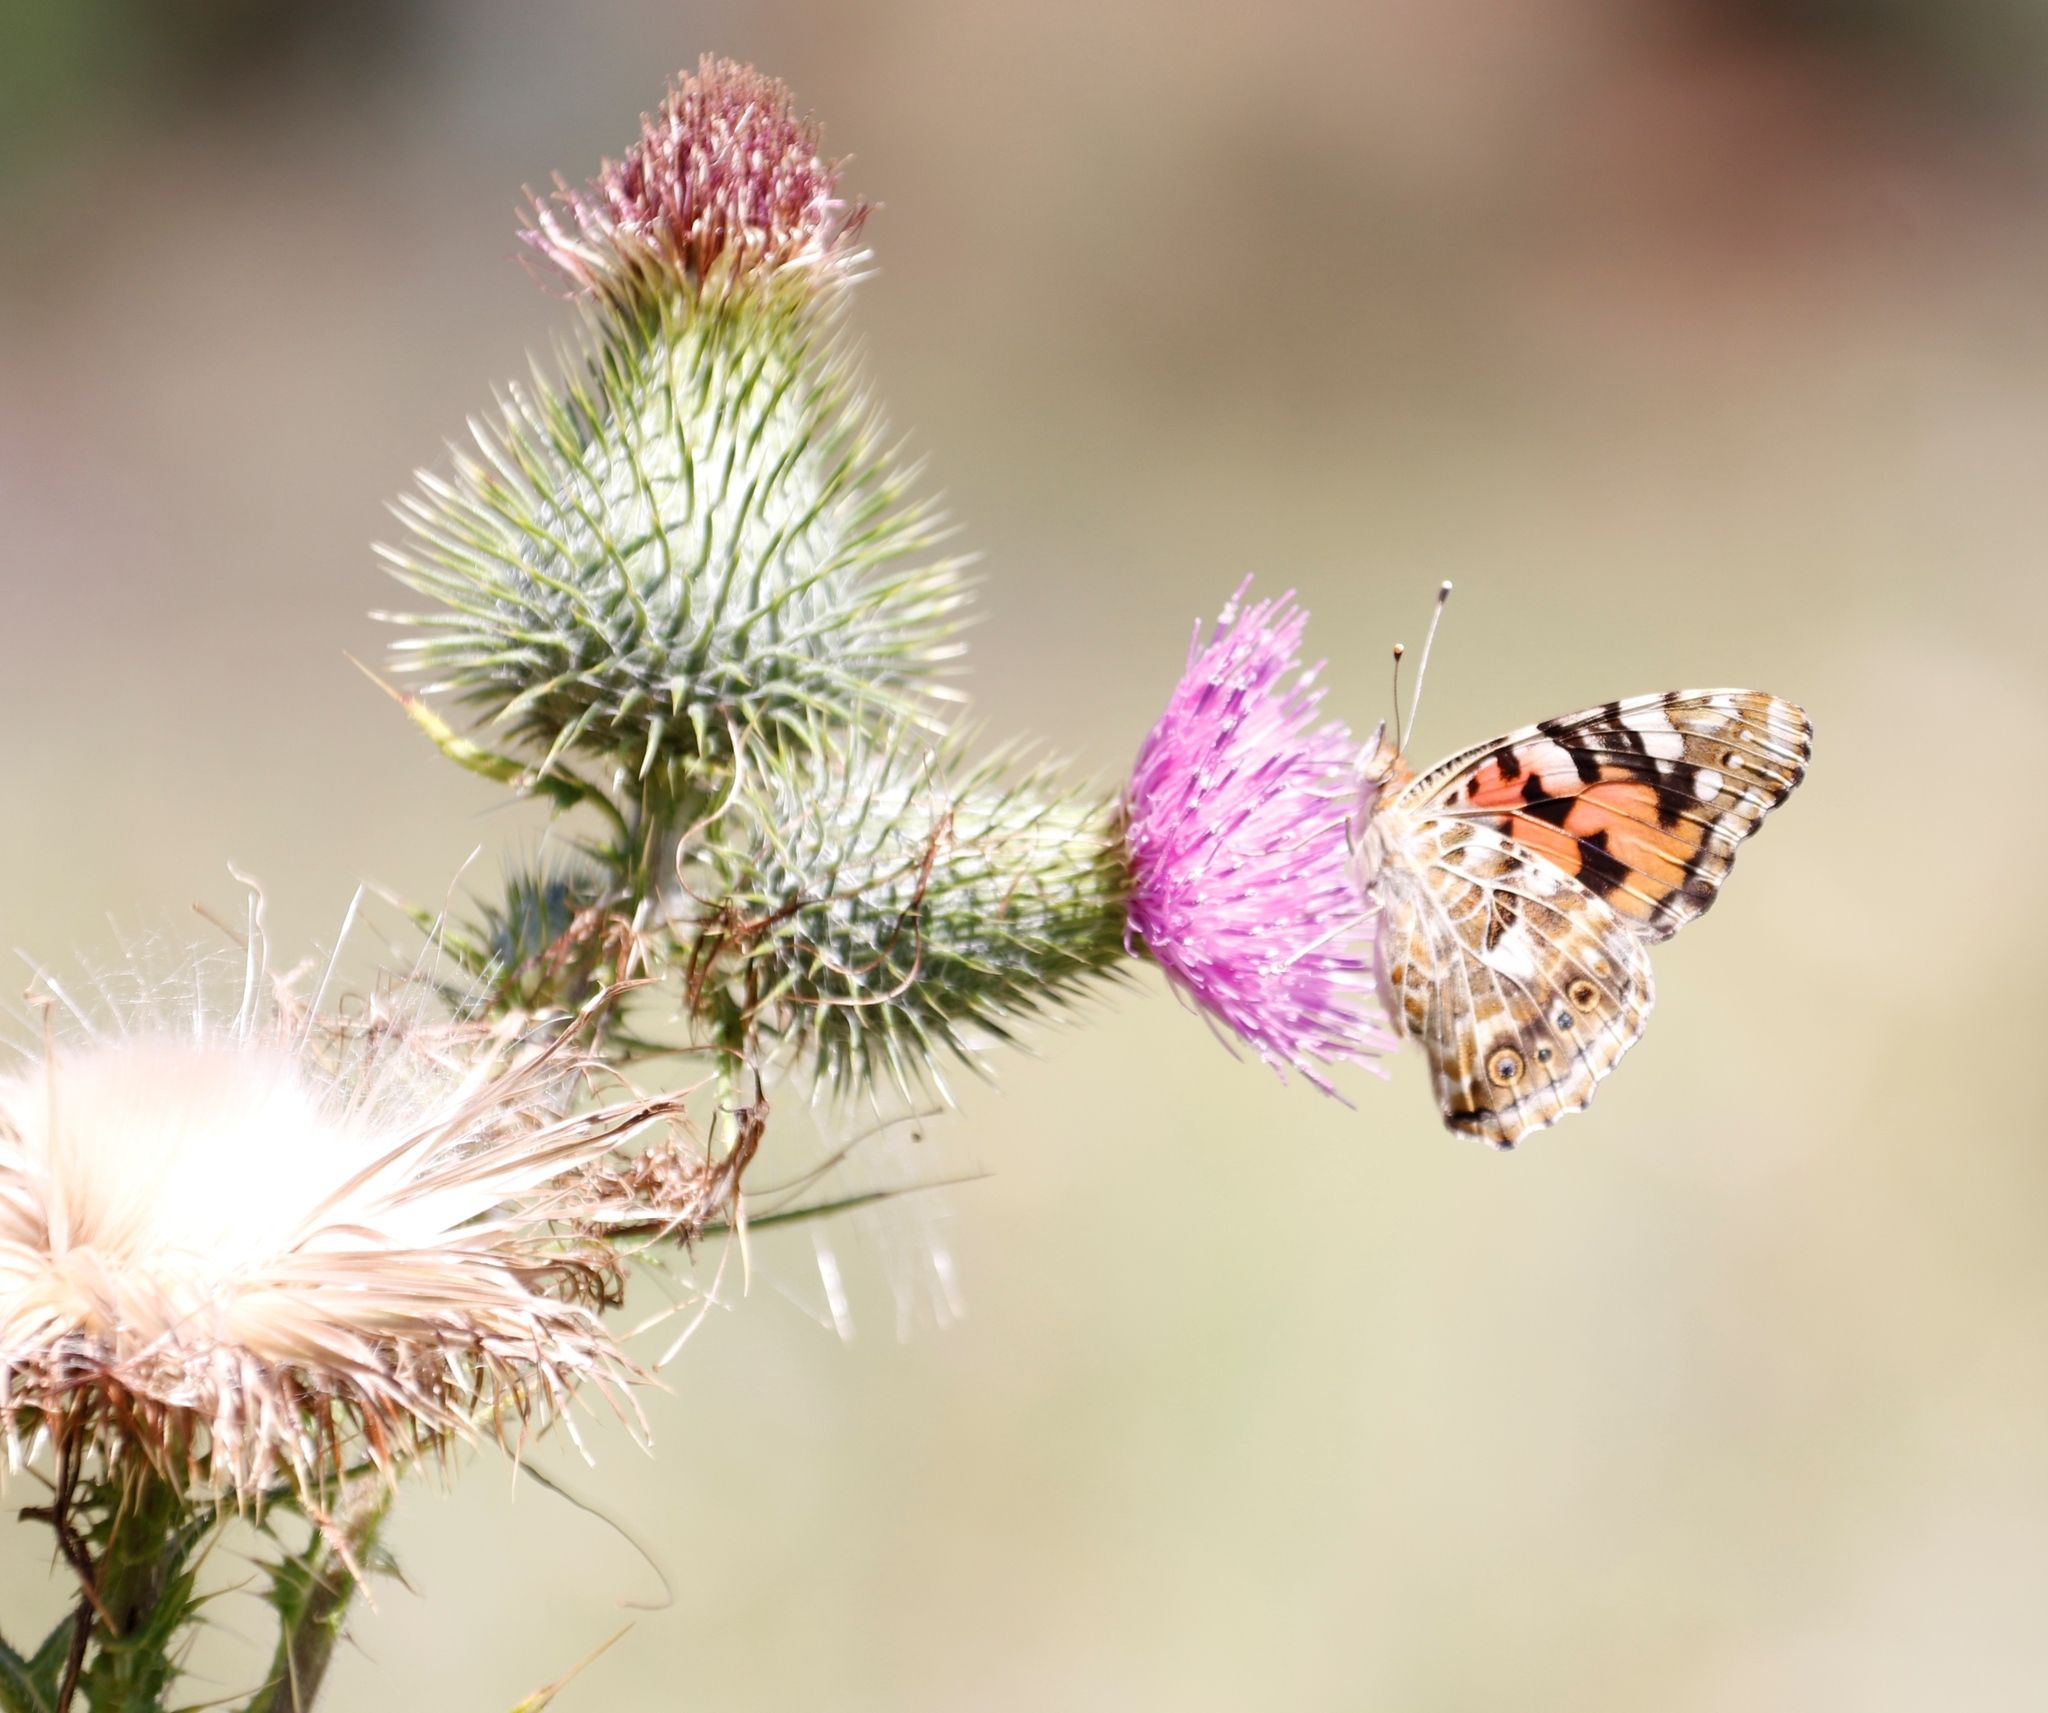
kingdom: Animalia
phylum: Arthropoda
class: Insecta
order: Lepidoptera
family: Nymphalidae
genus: Vanessa
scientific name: Vanessa cardui
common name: Painted lady
